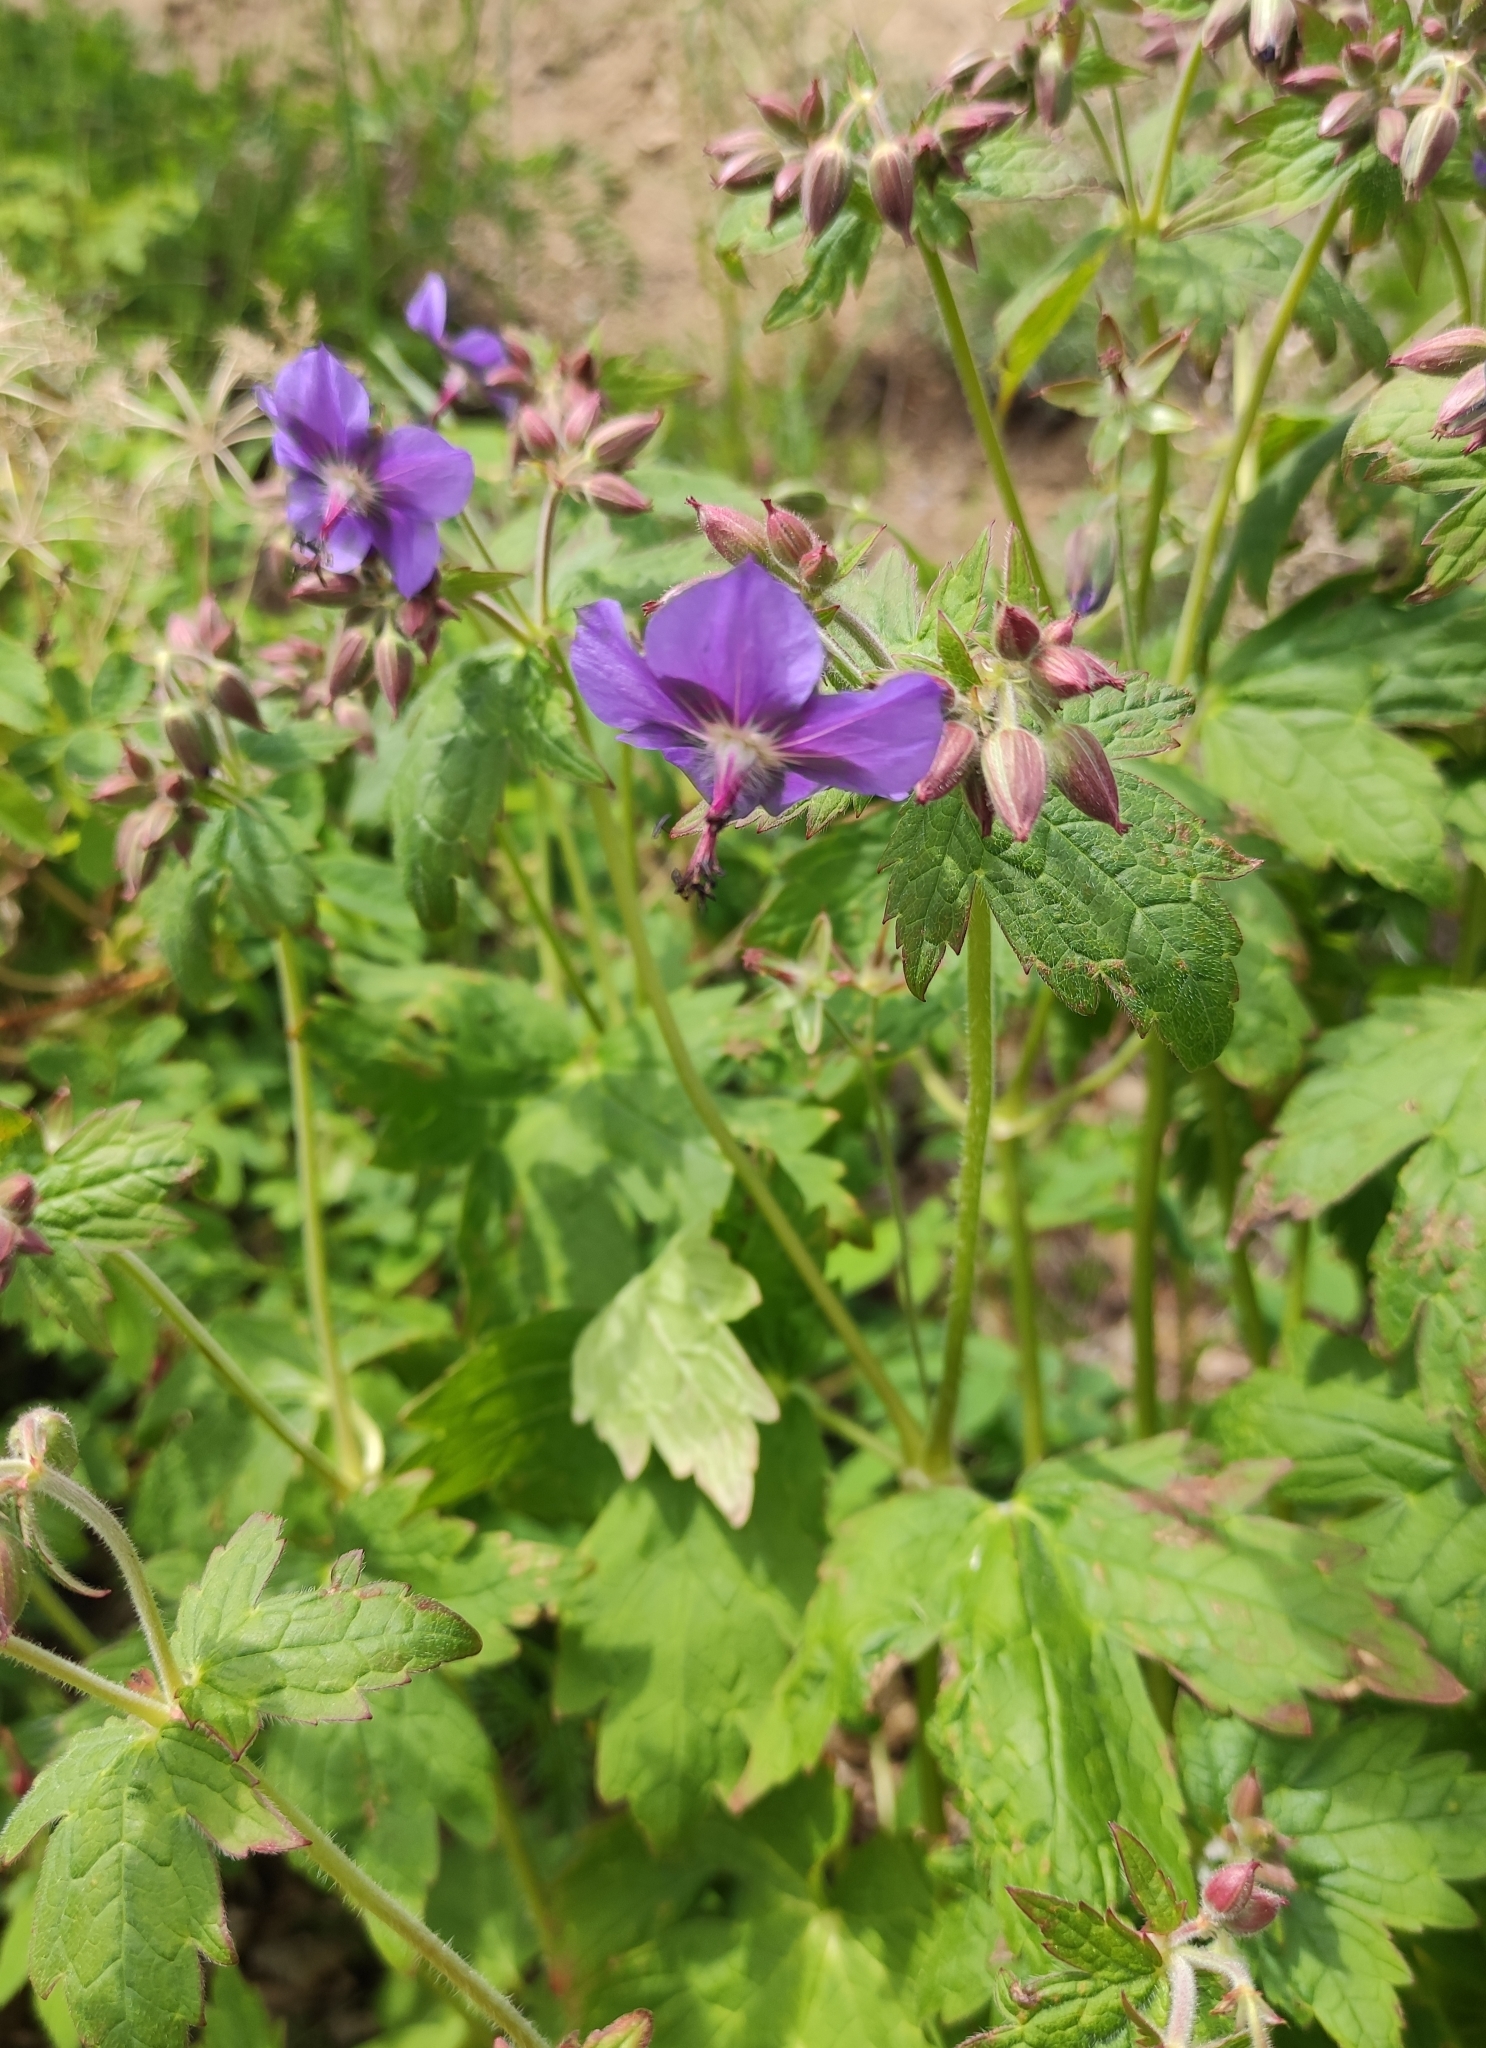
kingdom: Plantae
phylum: Tracheophyta
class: Magnoliopsida
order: Geraniales
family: Geraniaceae
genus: Geranium
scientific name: Geranium platyanthum
